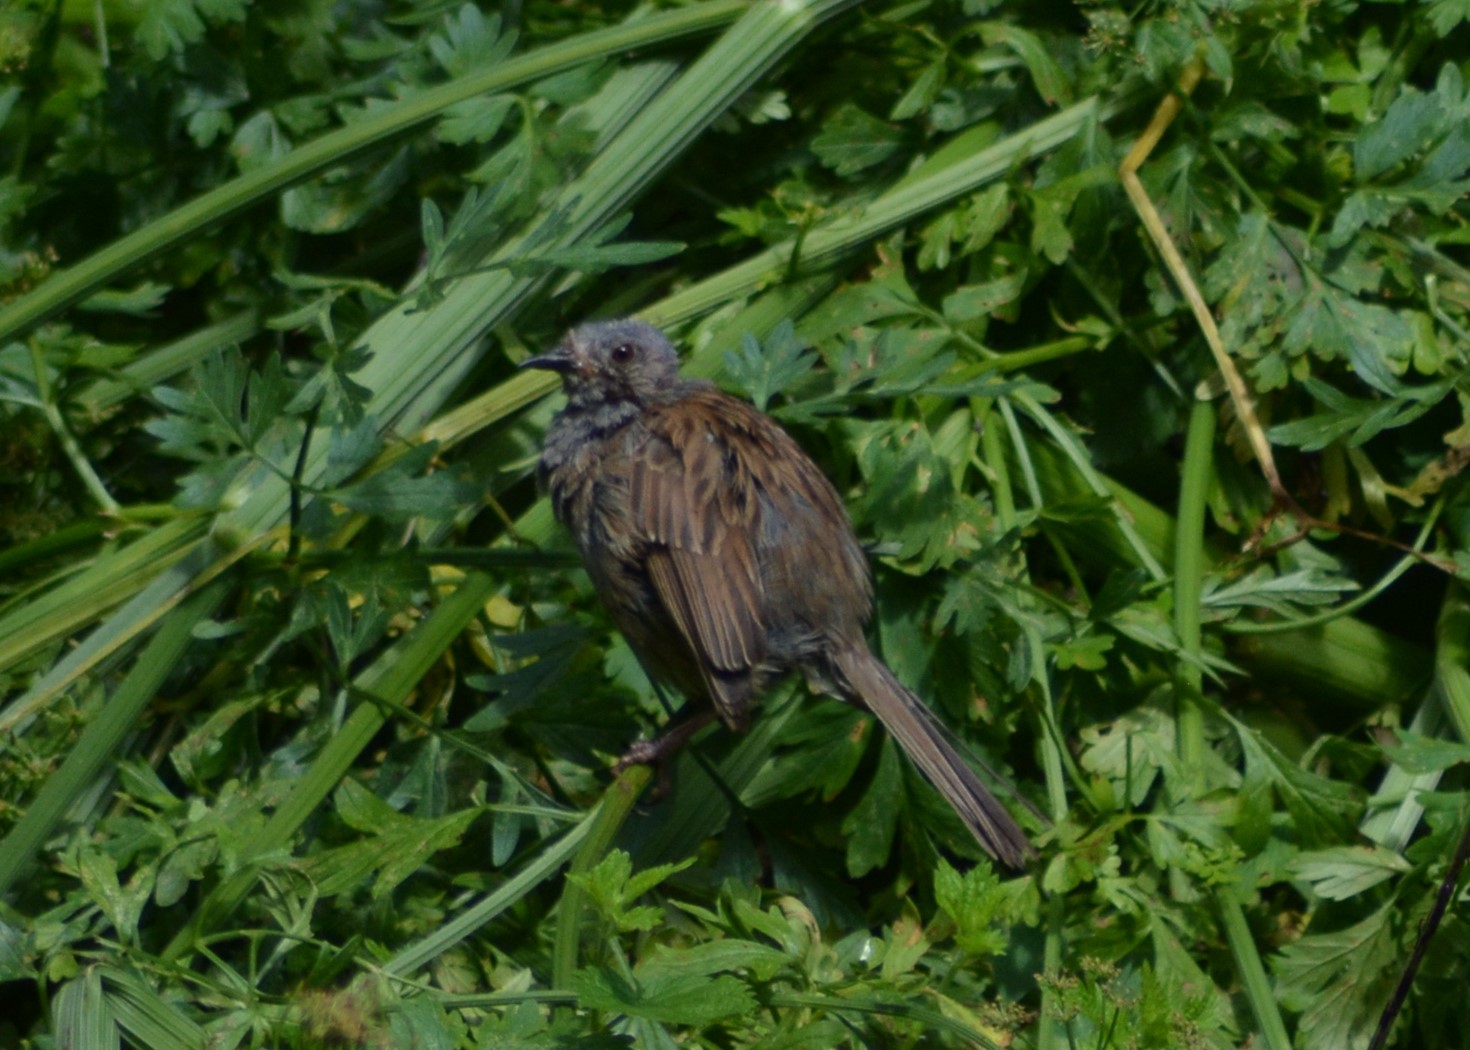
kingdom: Animalia
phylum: Chordata
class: Aves
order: Passeriformes
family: Prunellidae
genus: Prunella
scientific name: Prunella modularis
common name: Dunnock
